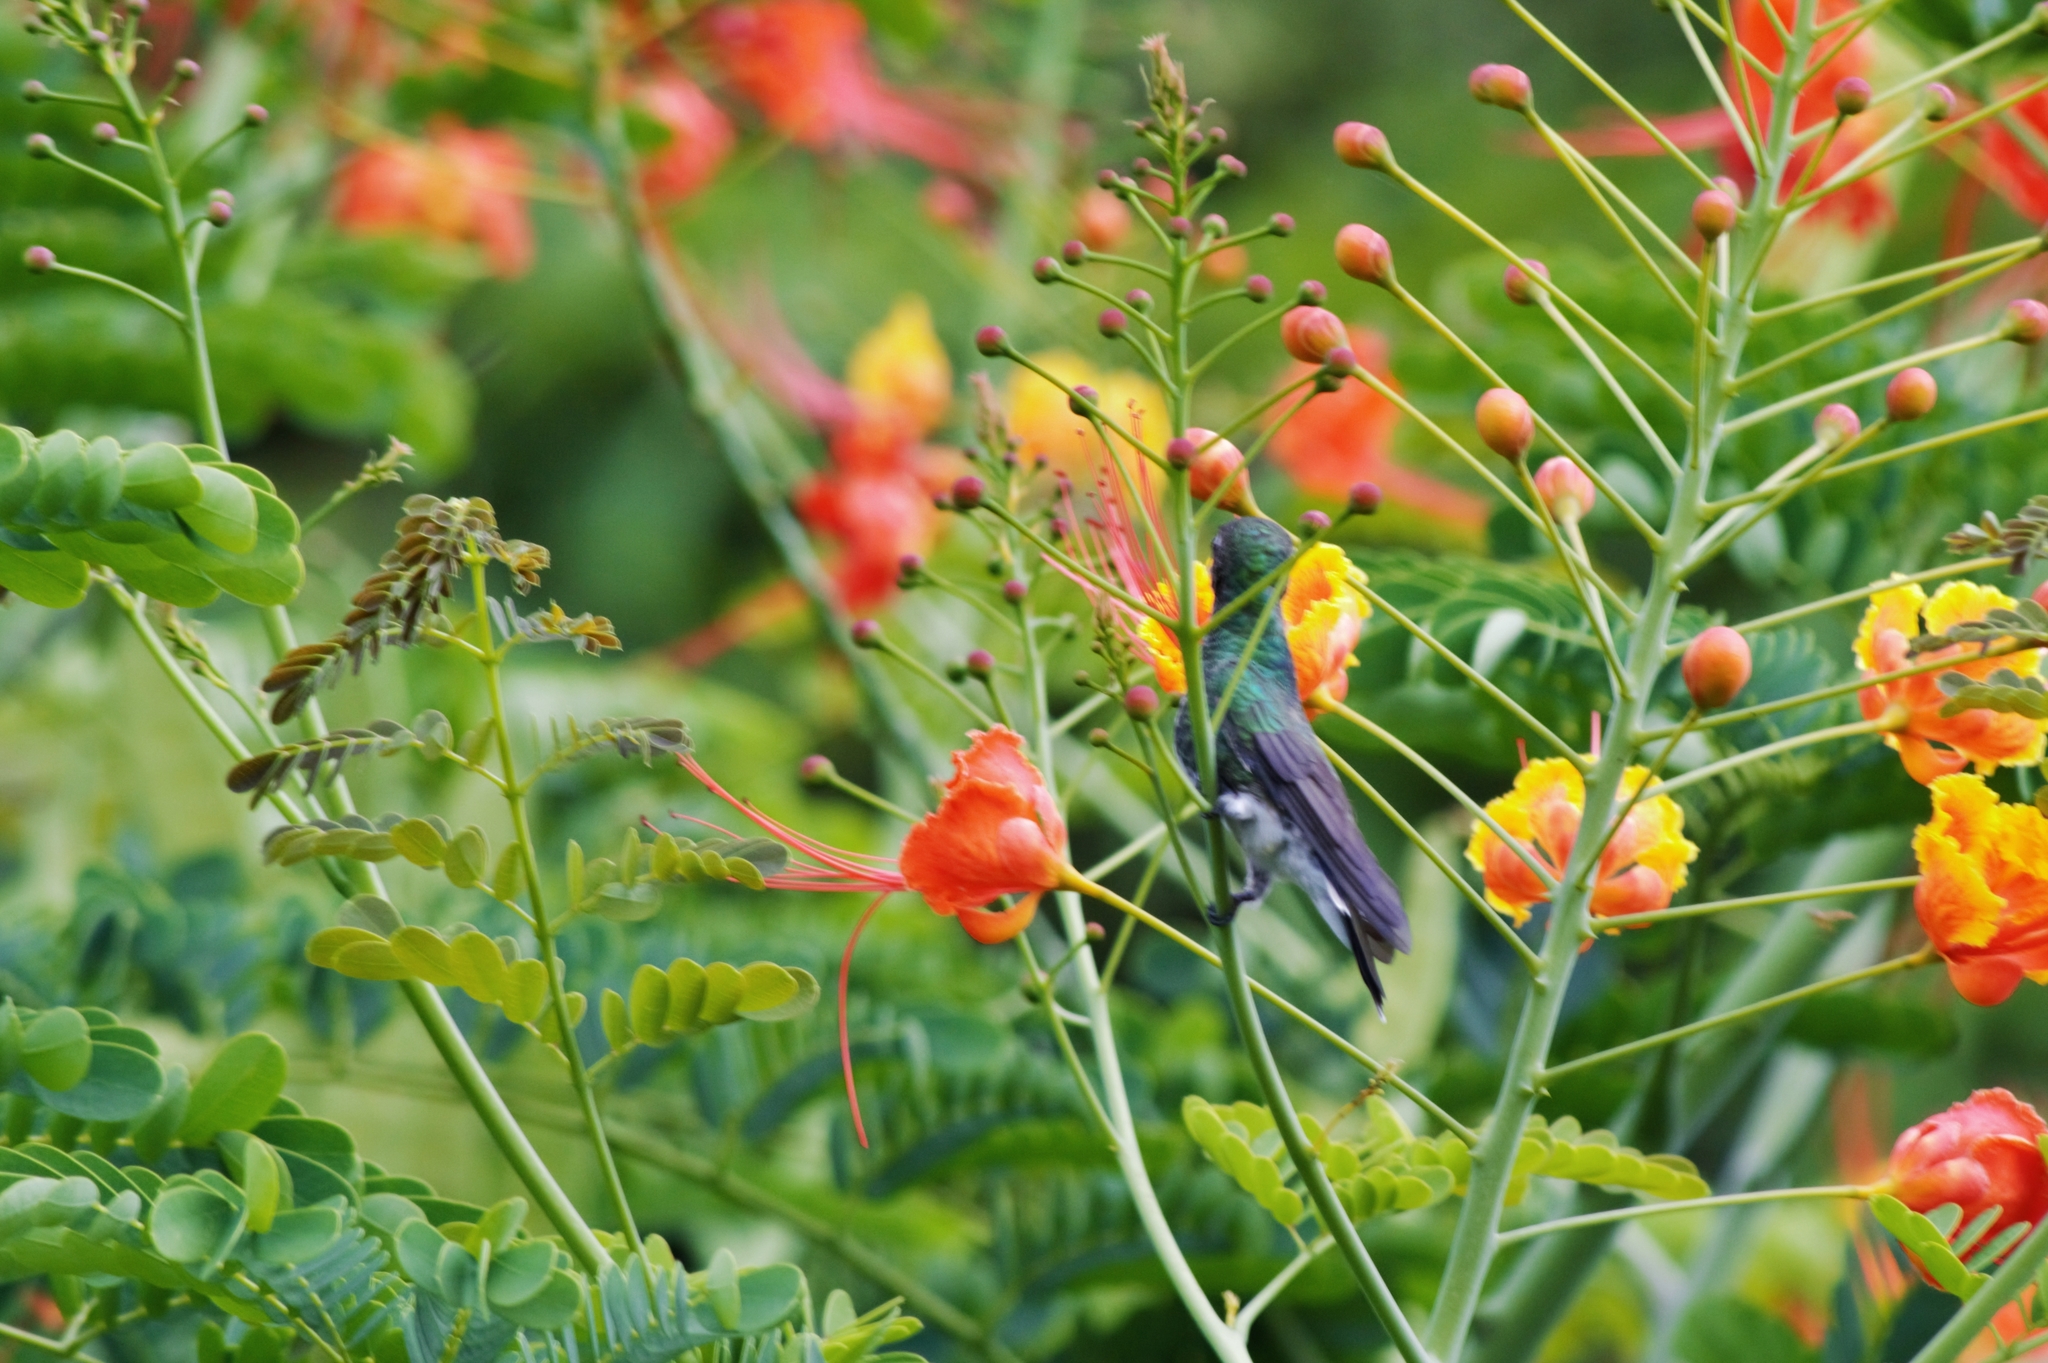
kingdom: Animalia
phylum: Chordata
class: Aves
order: Apodiformes
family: Trochilidae
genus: Chionomesa
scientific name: Chionomesa fimbriata
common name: Glittering-throated emerald
